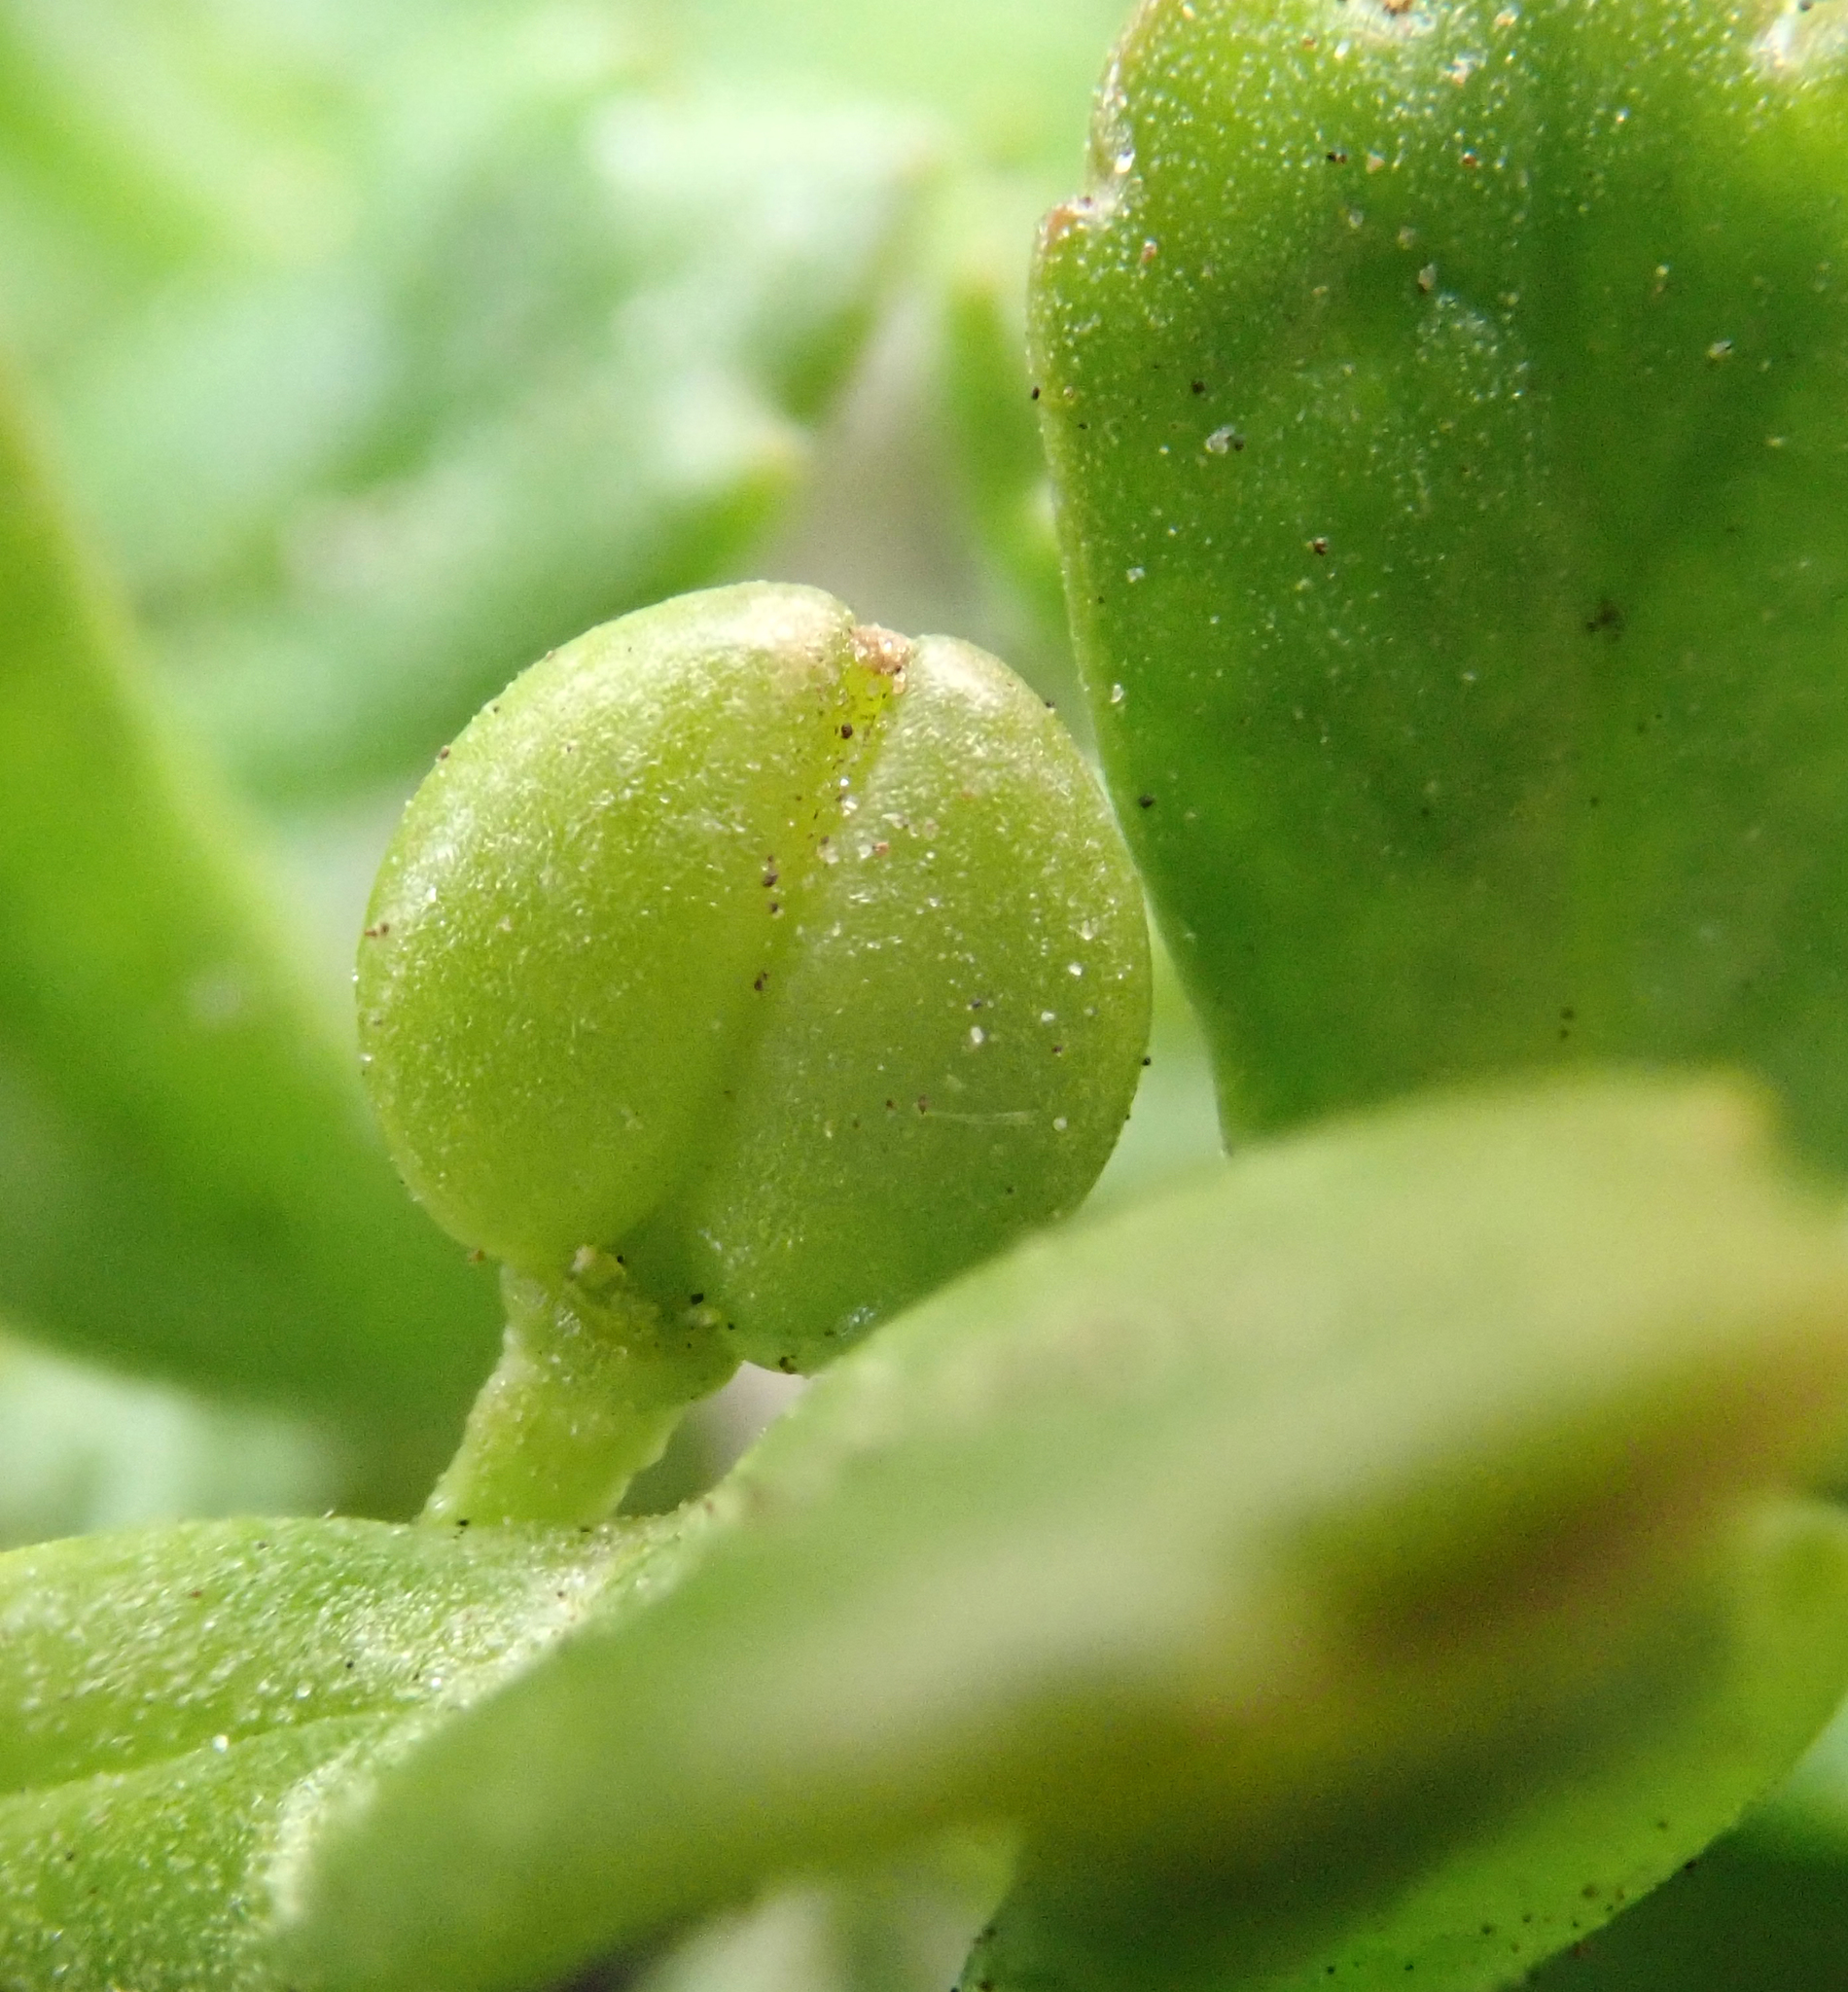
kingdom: Plantae
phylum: Tracheophyta
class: Magnoliopsida
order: Brassicales
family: Brassicaceae
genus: Lepidium
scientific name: Lepidium oligodontum
